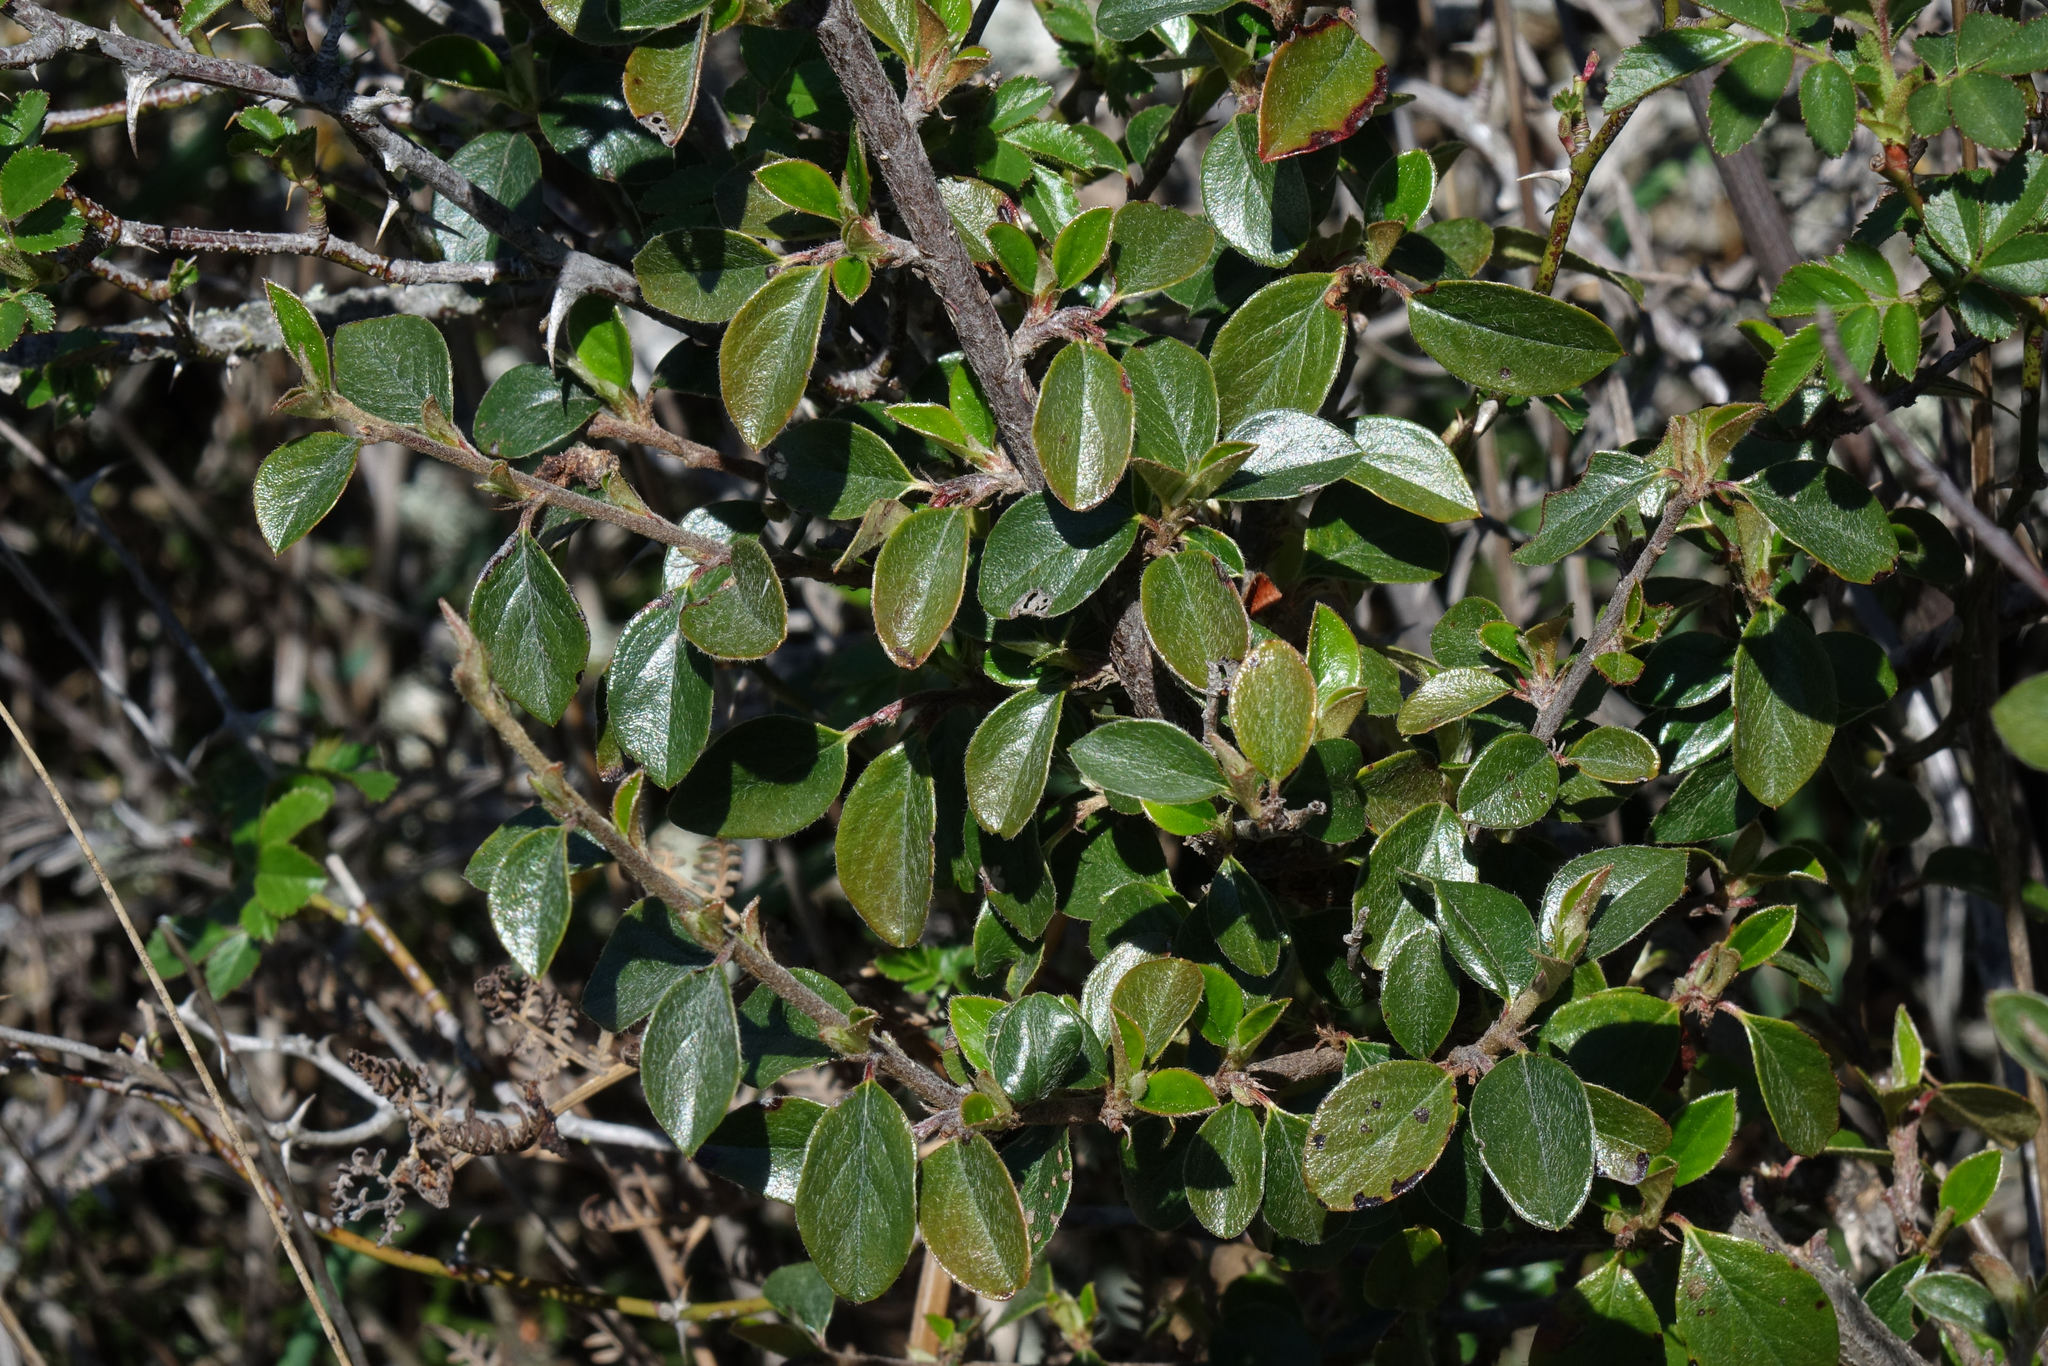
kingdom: Plantae
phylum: Tracheophyta
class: Magnoliopsida
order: Rosales
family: Rosaceae
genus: Cotoneaster
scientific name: Cotoneaster simonsii
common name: Himalayan cotoneaster
